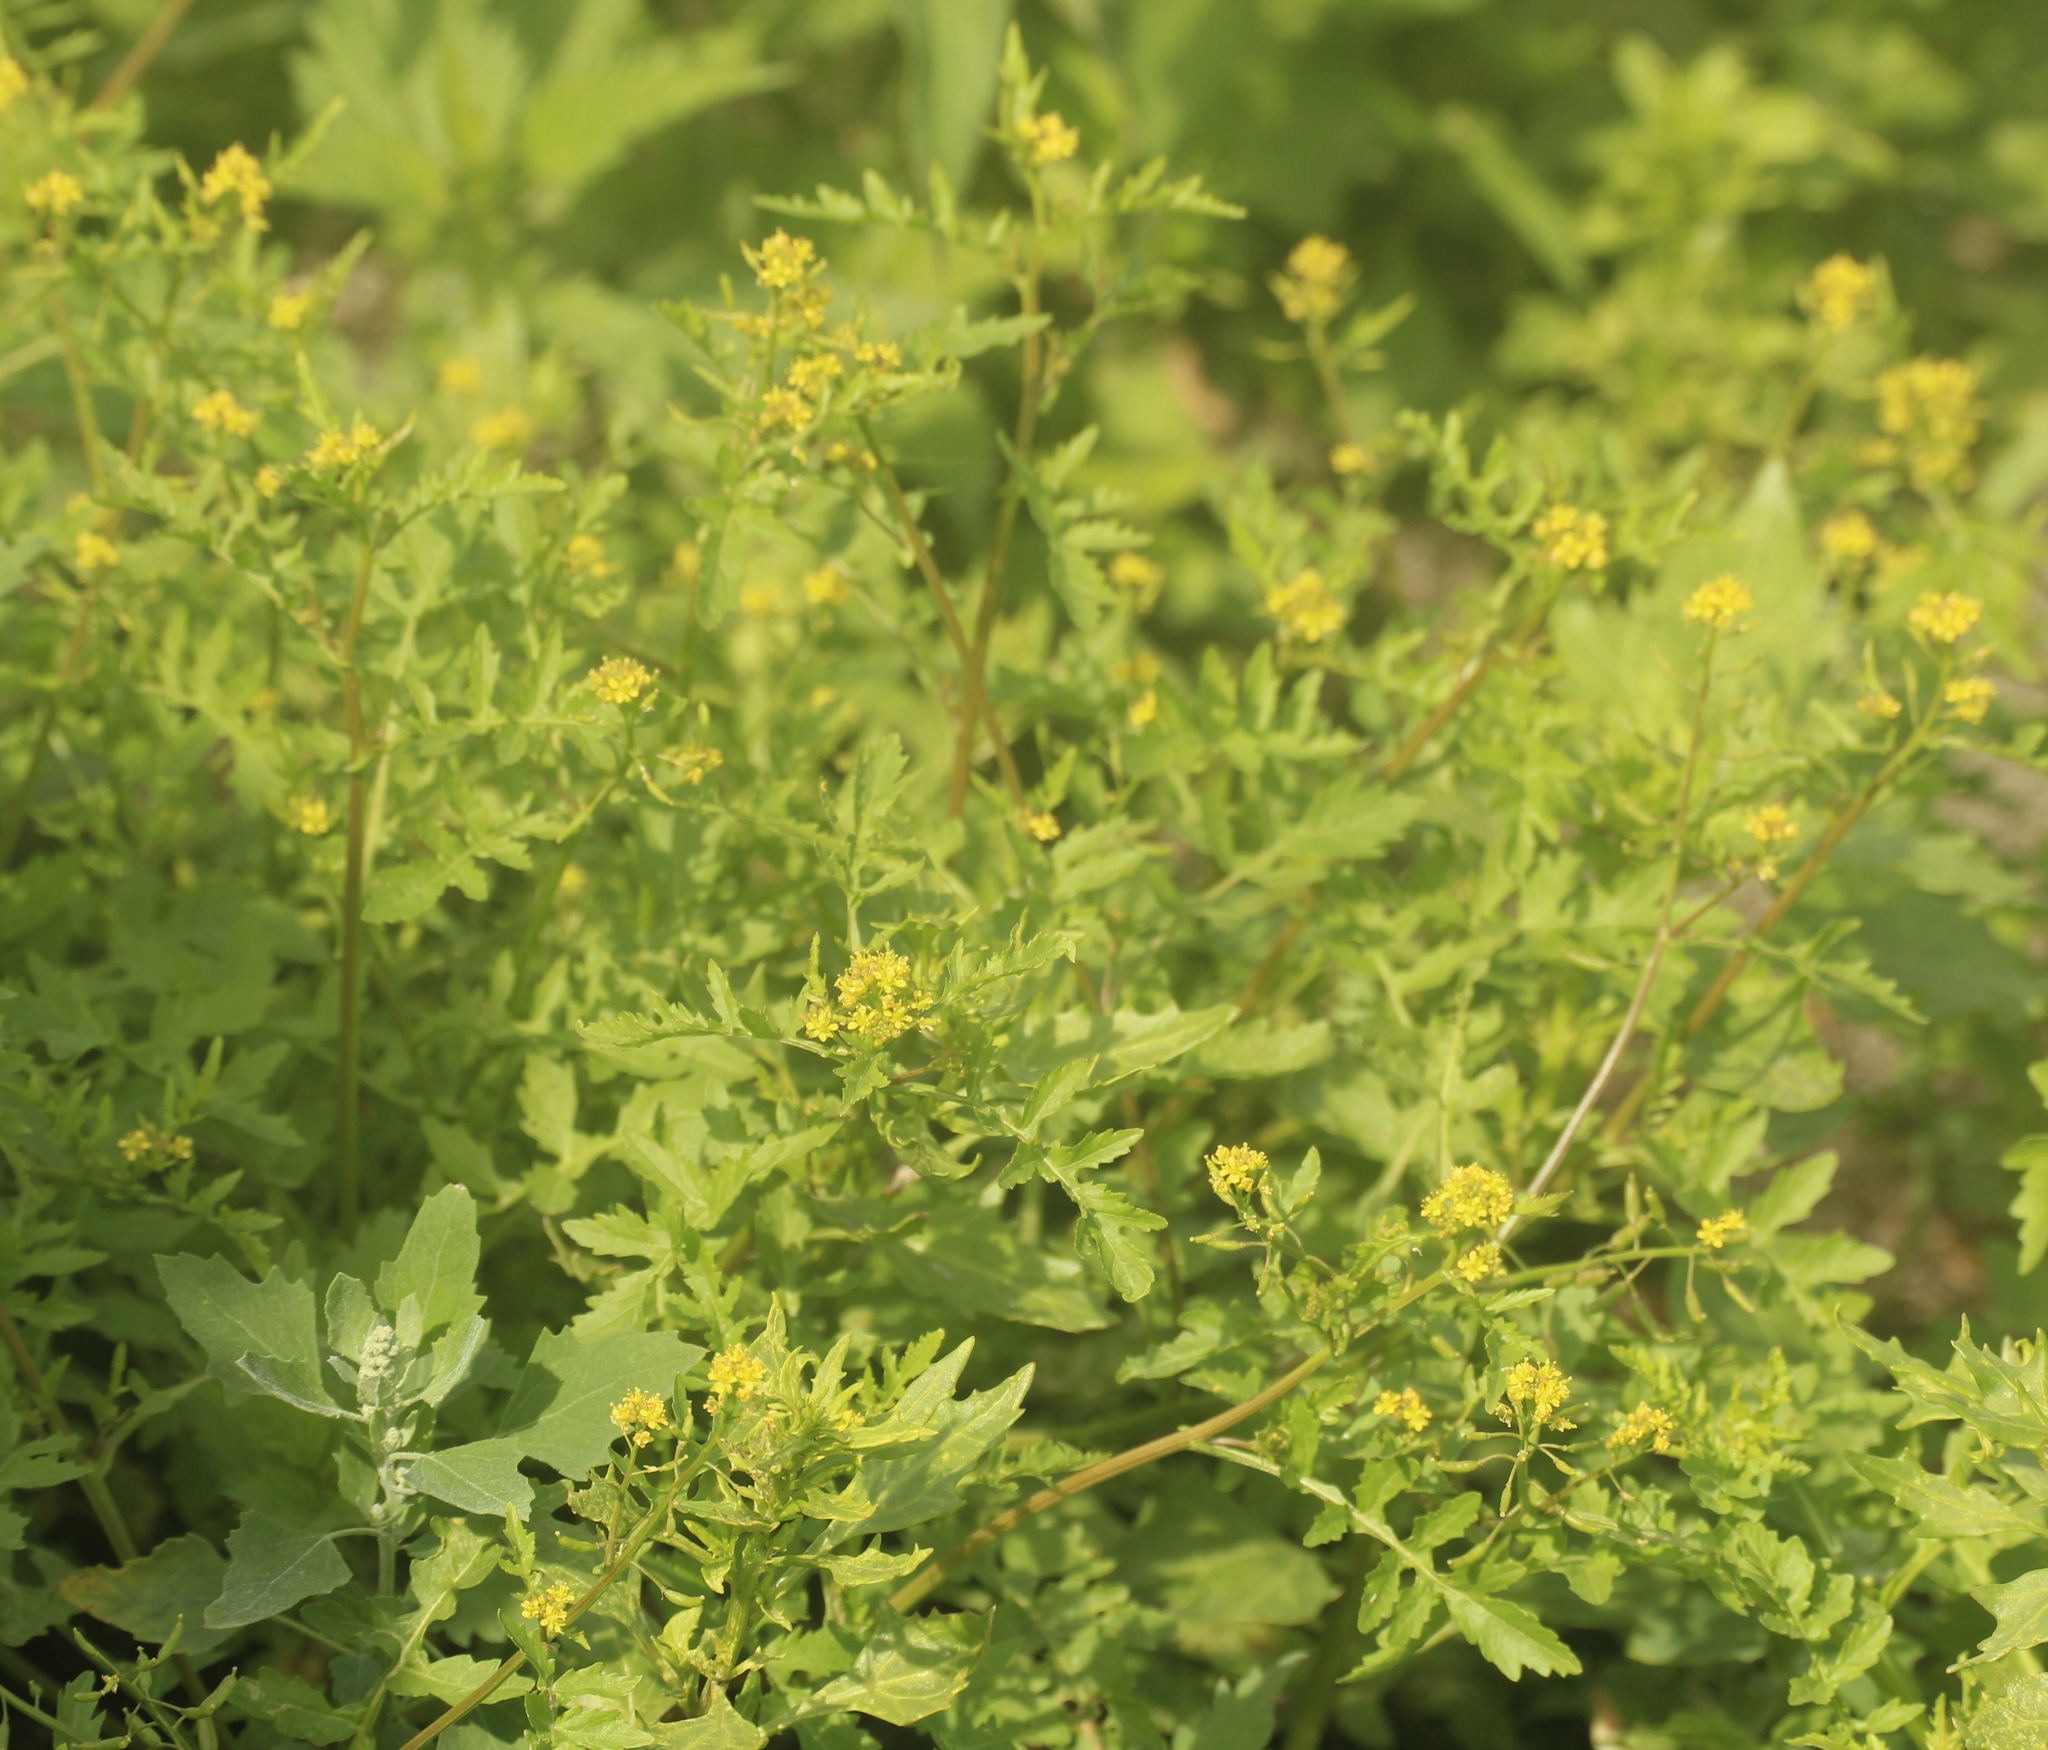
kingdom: Plantae
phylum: Tracheophyta
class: Magnoliopsida
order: Brassicales
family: Brassicaceae
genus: Rorippa
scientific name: Rorippa palustris
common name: Marsh yellow-cress
